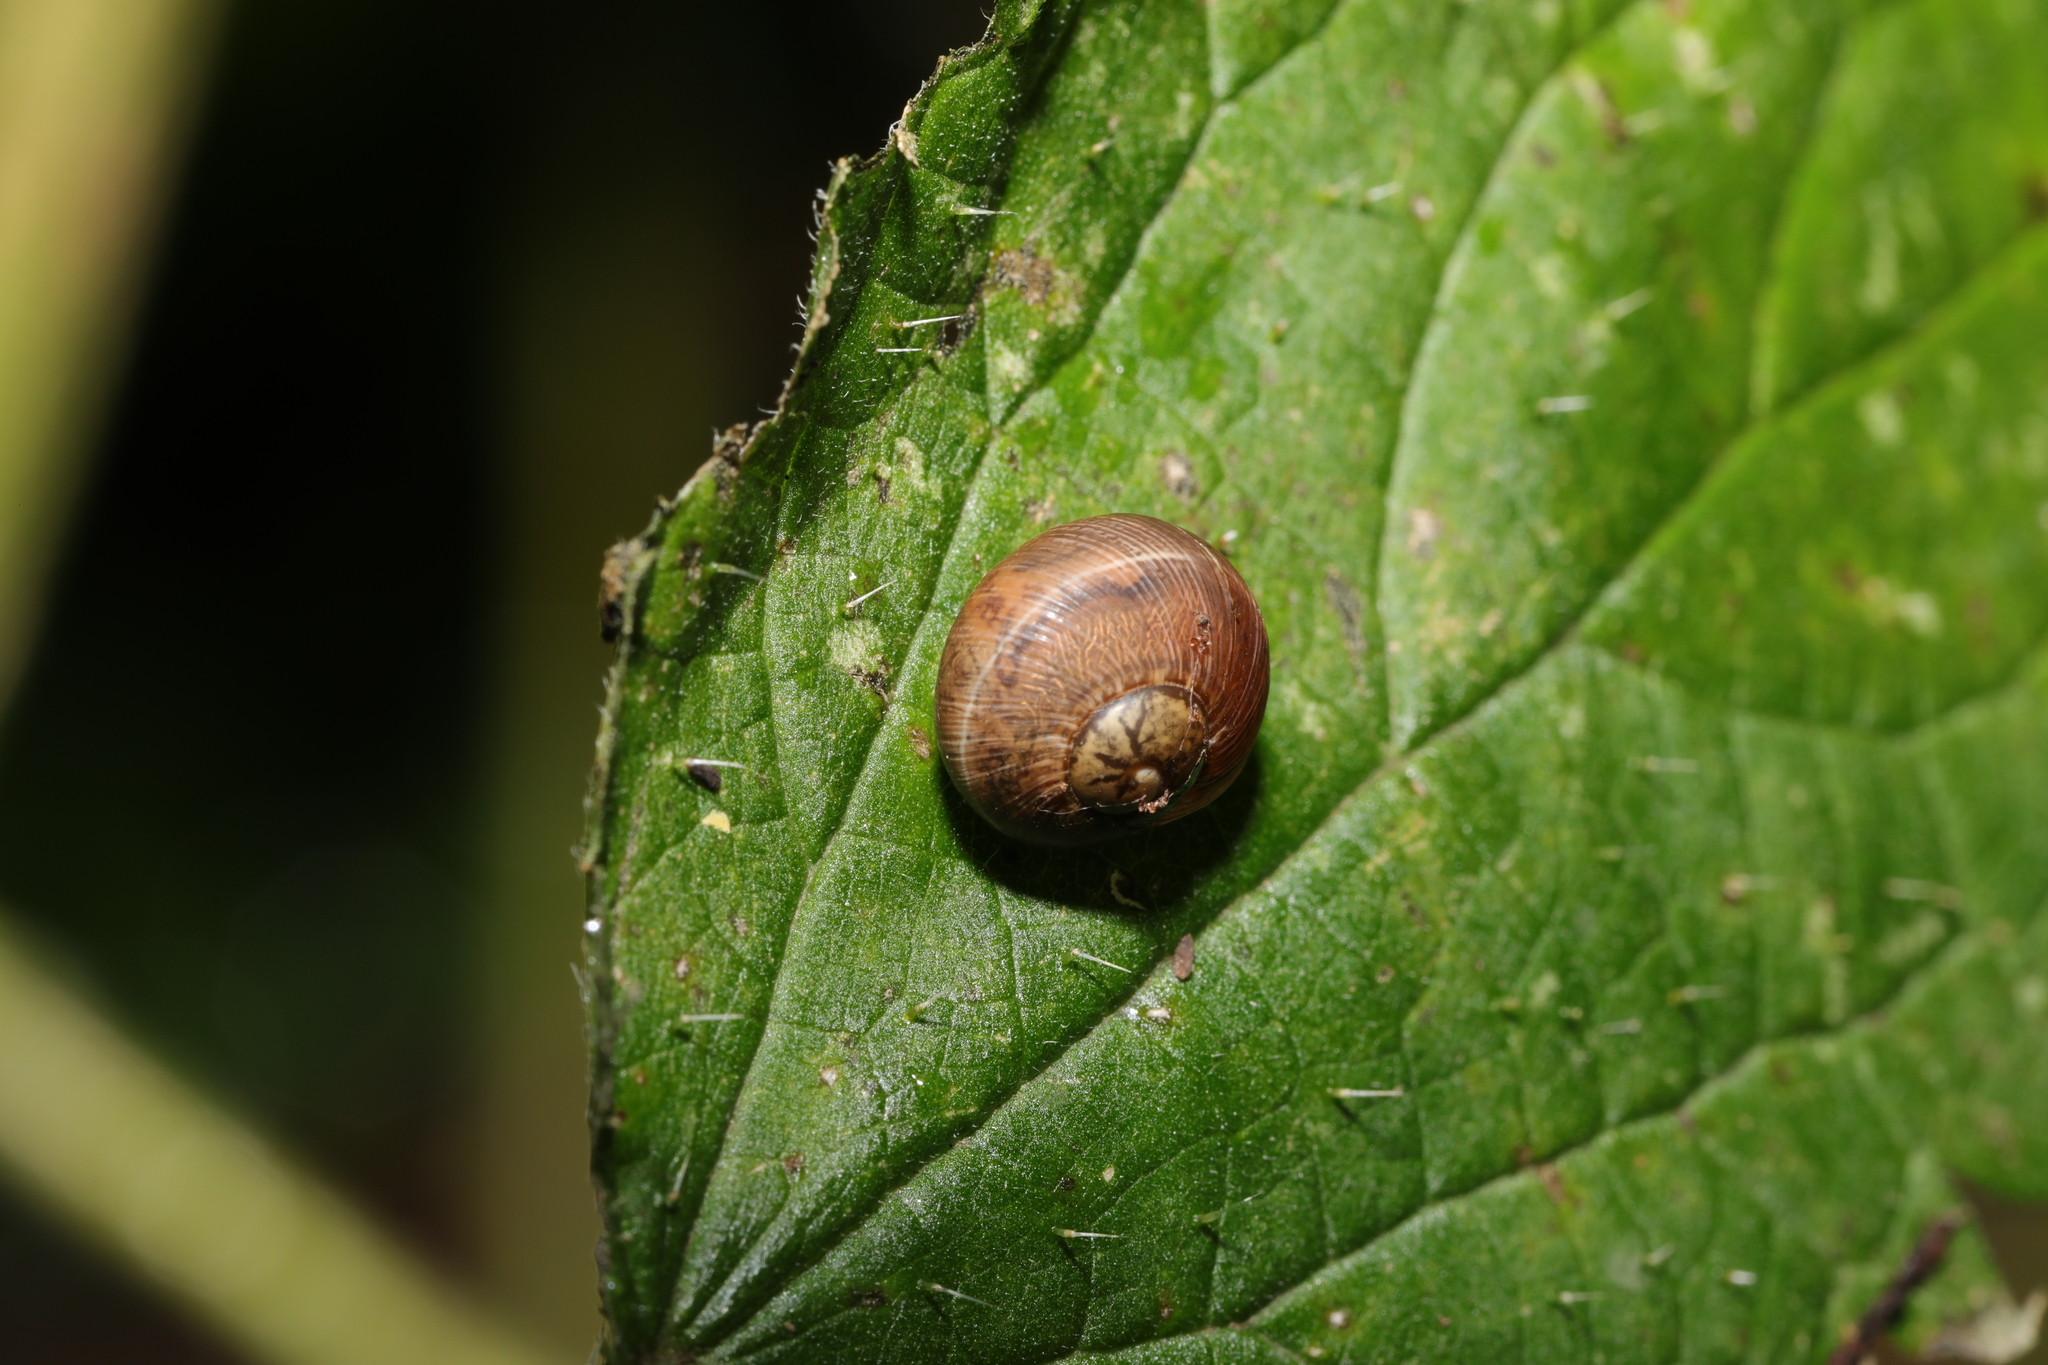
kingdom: Animalia
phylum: Mollusca
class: Gastropoda
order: Stylommatophora
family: Helicidae
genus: Cornu
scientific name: Cornu aspersum
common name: Brown garden snail
